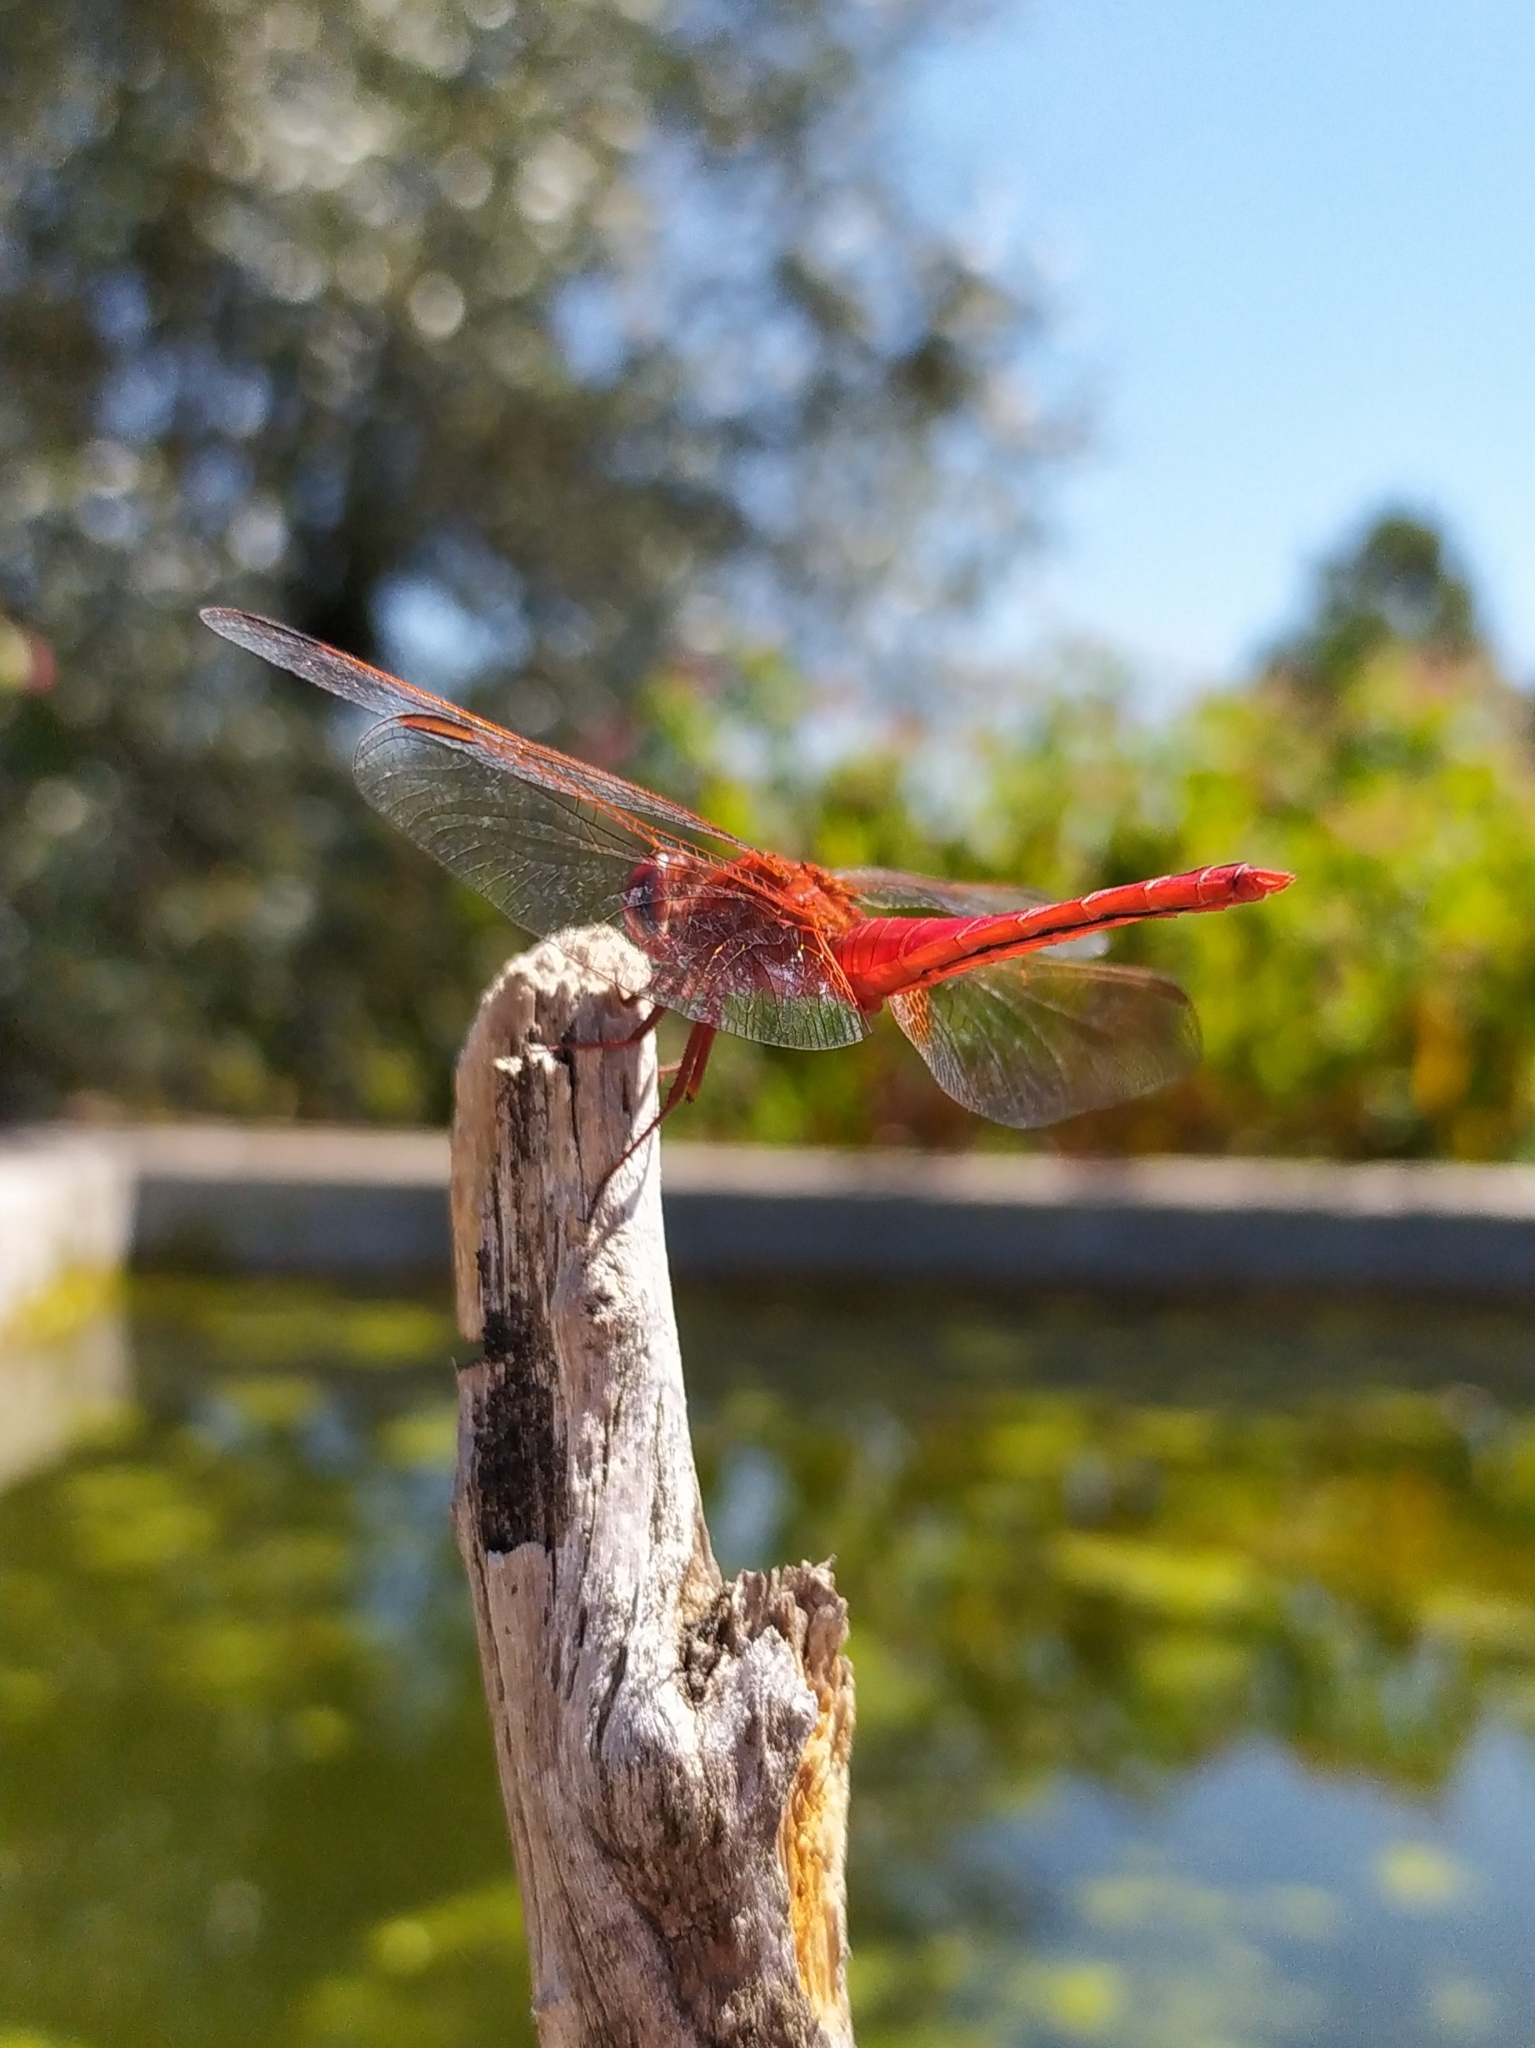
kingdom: Animalia
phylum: Arthropoda
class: Insecta
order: Odonata
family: Libellulidae
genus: Crocothemis
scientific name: Crocothemis erythraea
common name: Scarlet dragonfly
